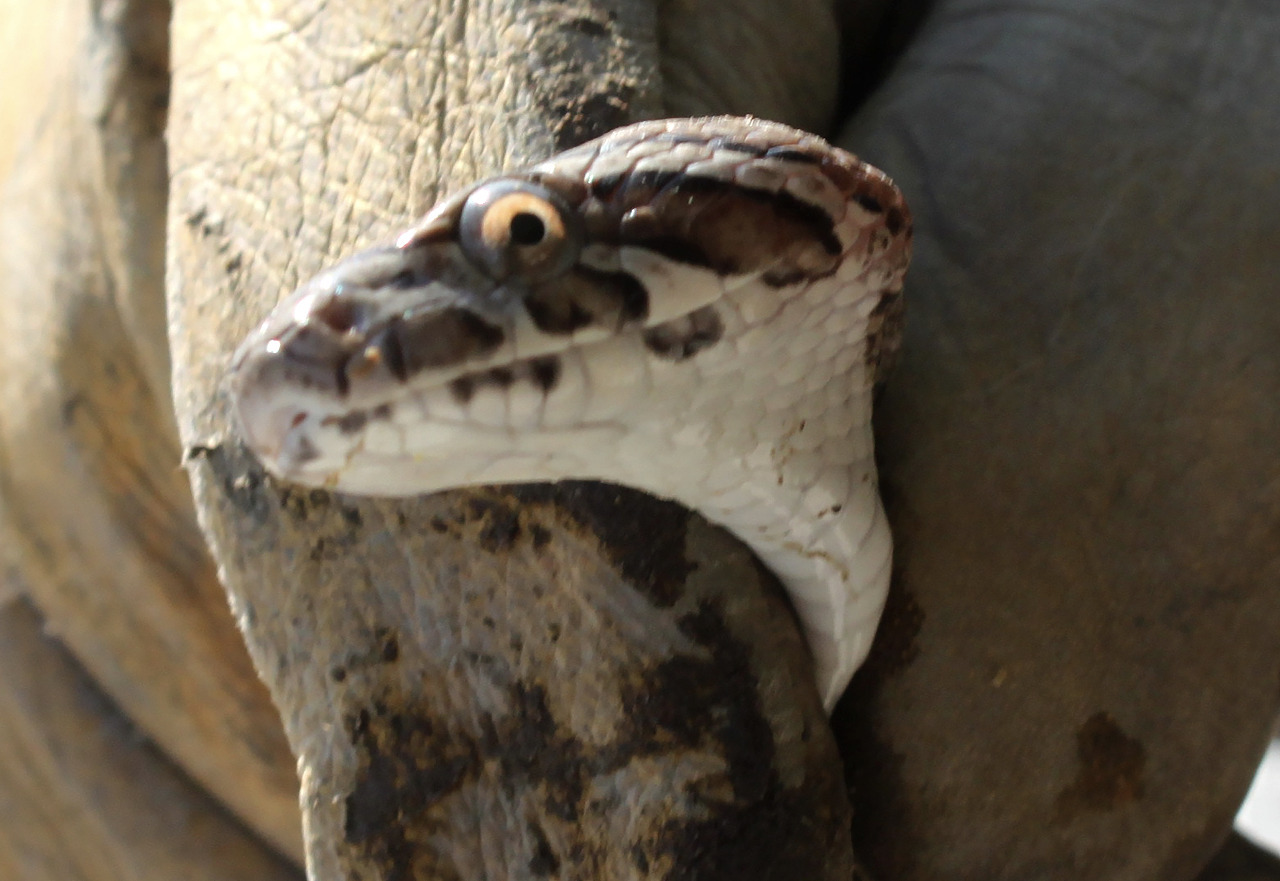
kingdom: Animalia
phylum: Chordata
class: Squamata
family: Colubridae
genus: Pantherophis
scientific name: Pantherophis emoryi
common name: Great plains rat snake
